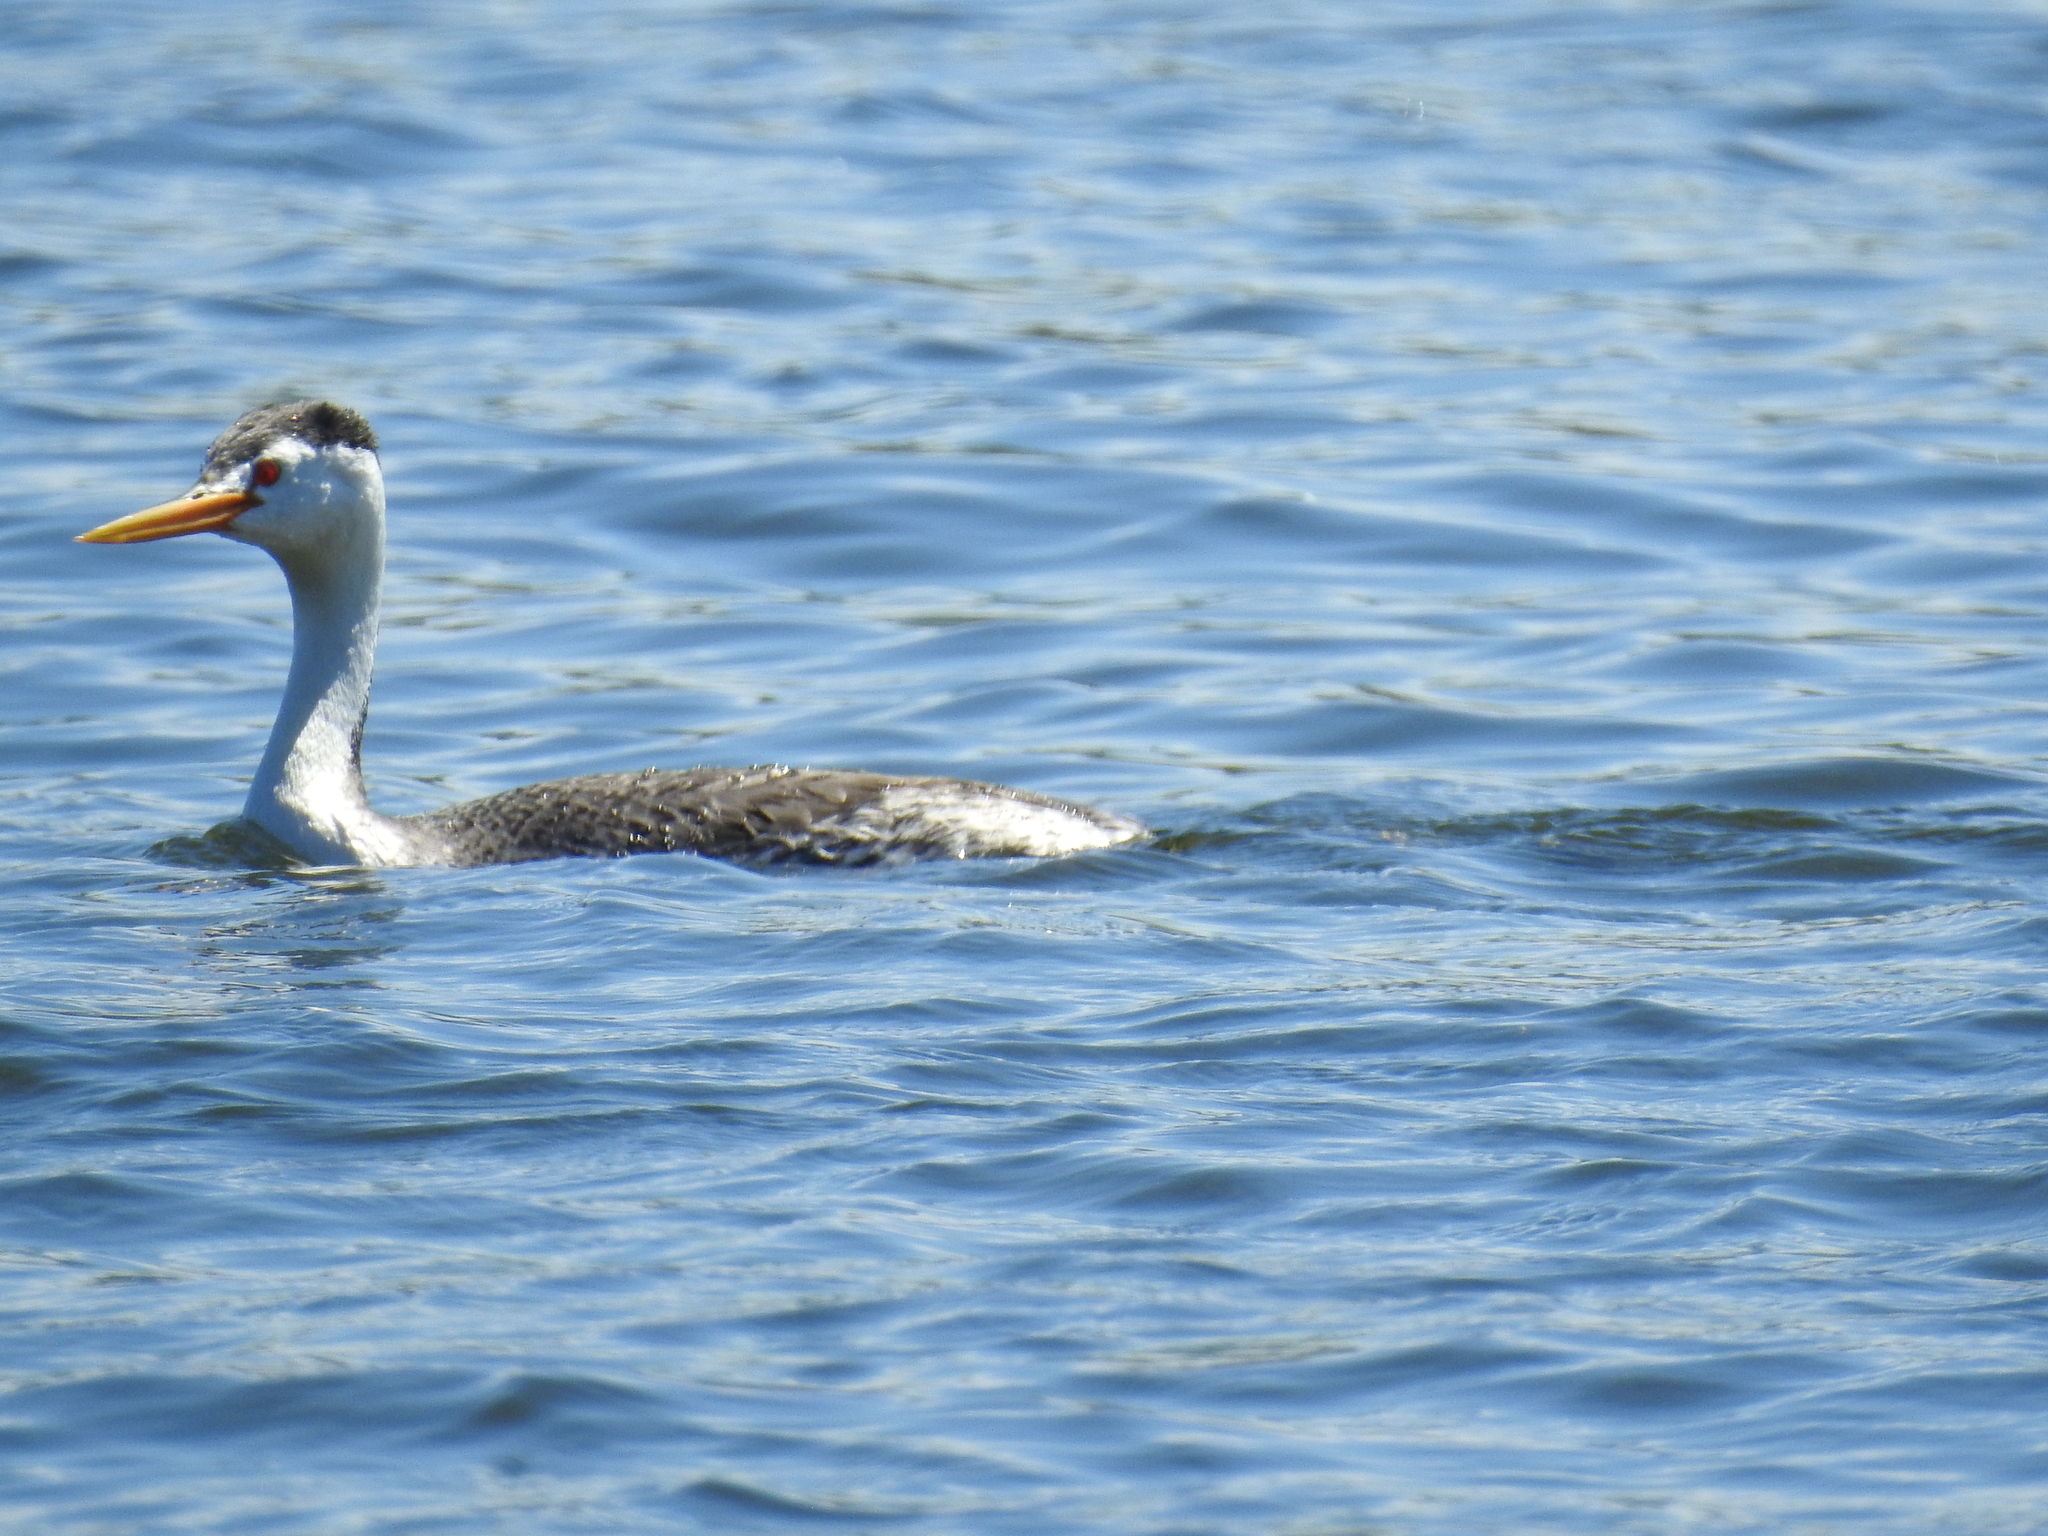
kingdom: Animalia
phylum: Chordata
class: Aves
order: Podicipediformes
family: Podicipedidae
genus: Aechmophorus
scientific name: Aechmophorus clarkii
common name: Clark's grebe
